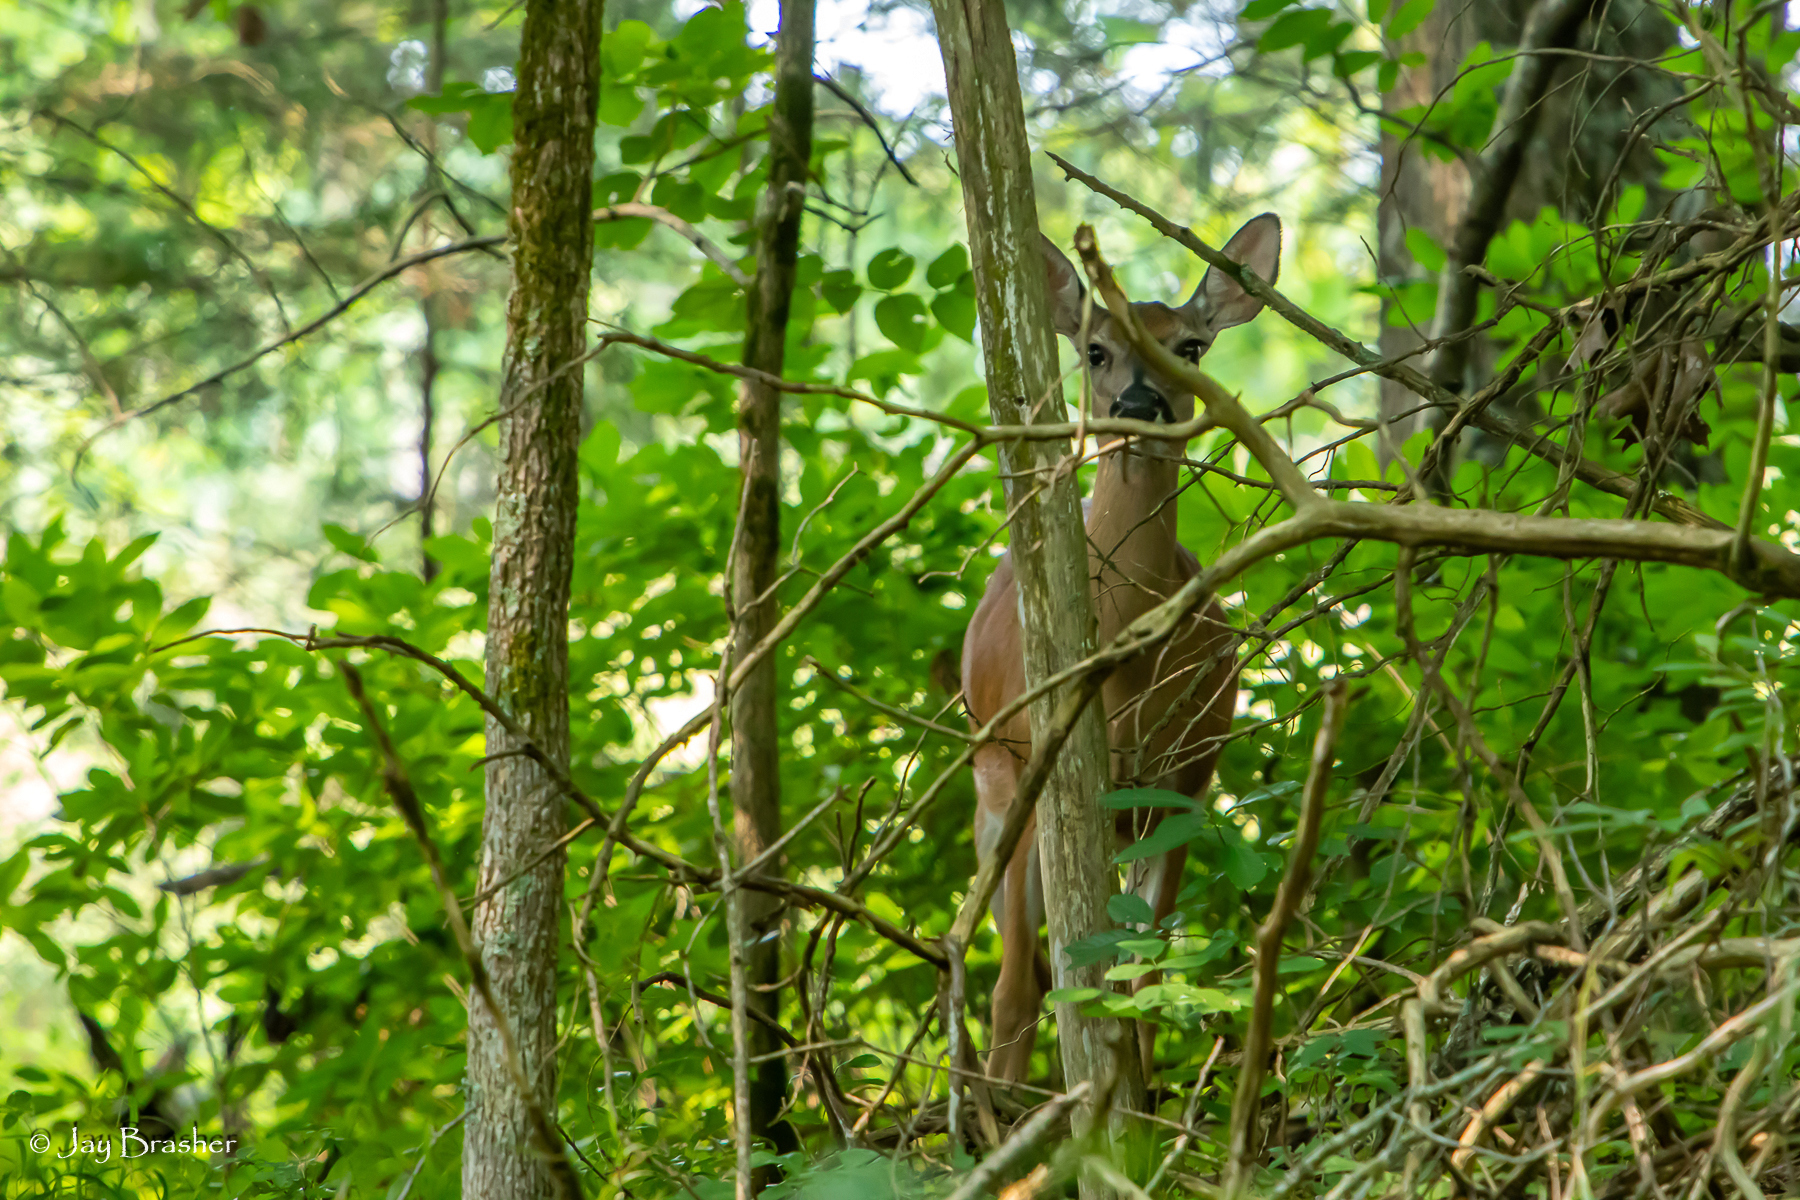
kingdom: Animalia
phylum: Chordata
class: Mammalia
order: Artiodactyla
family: Cervidae
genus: Odocoileus
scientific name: Odocoileus virginianus
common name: White-tailed deer
